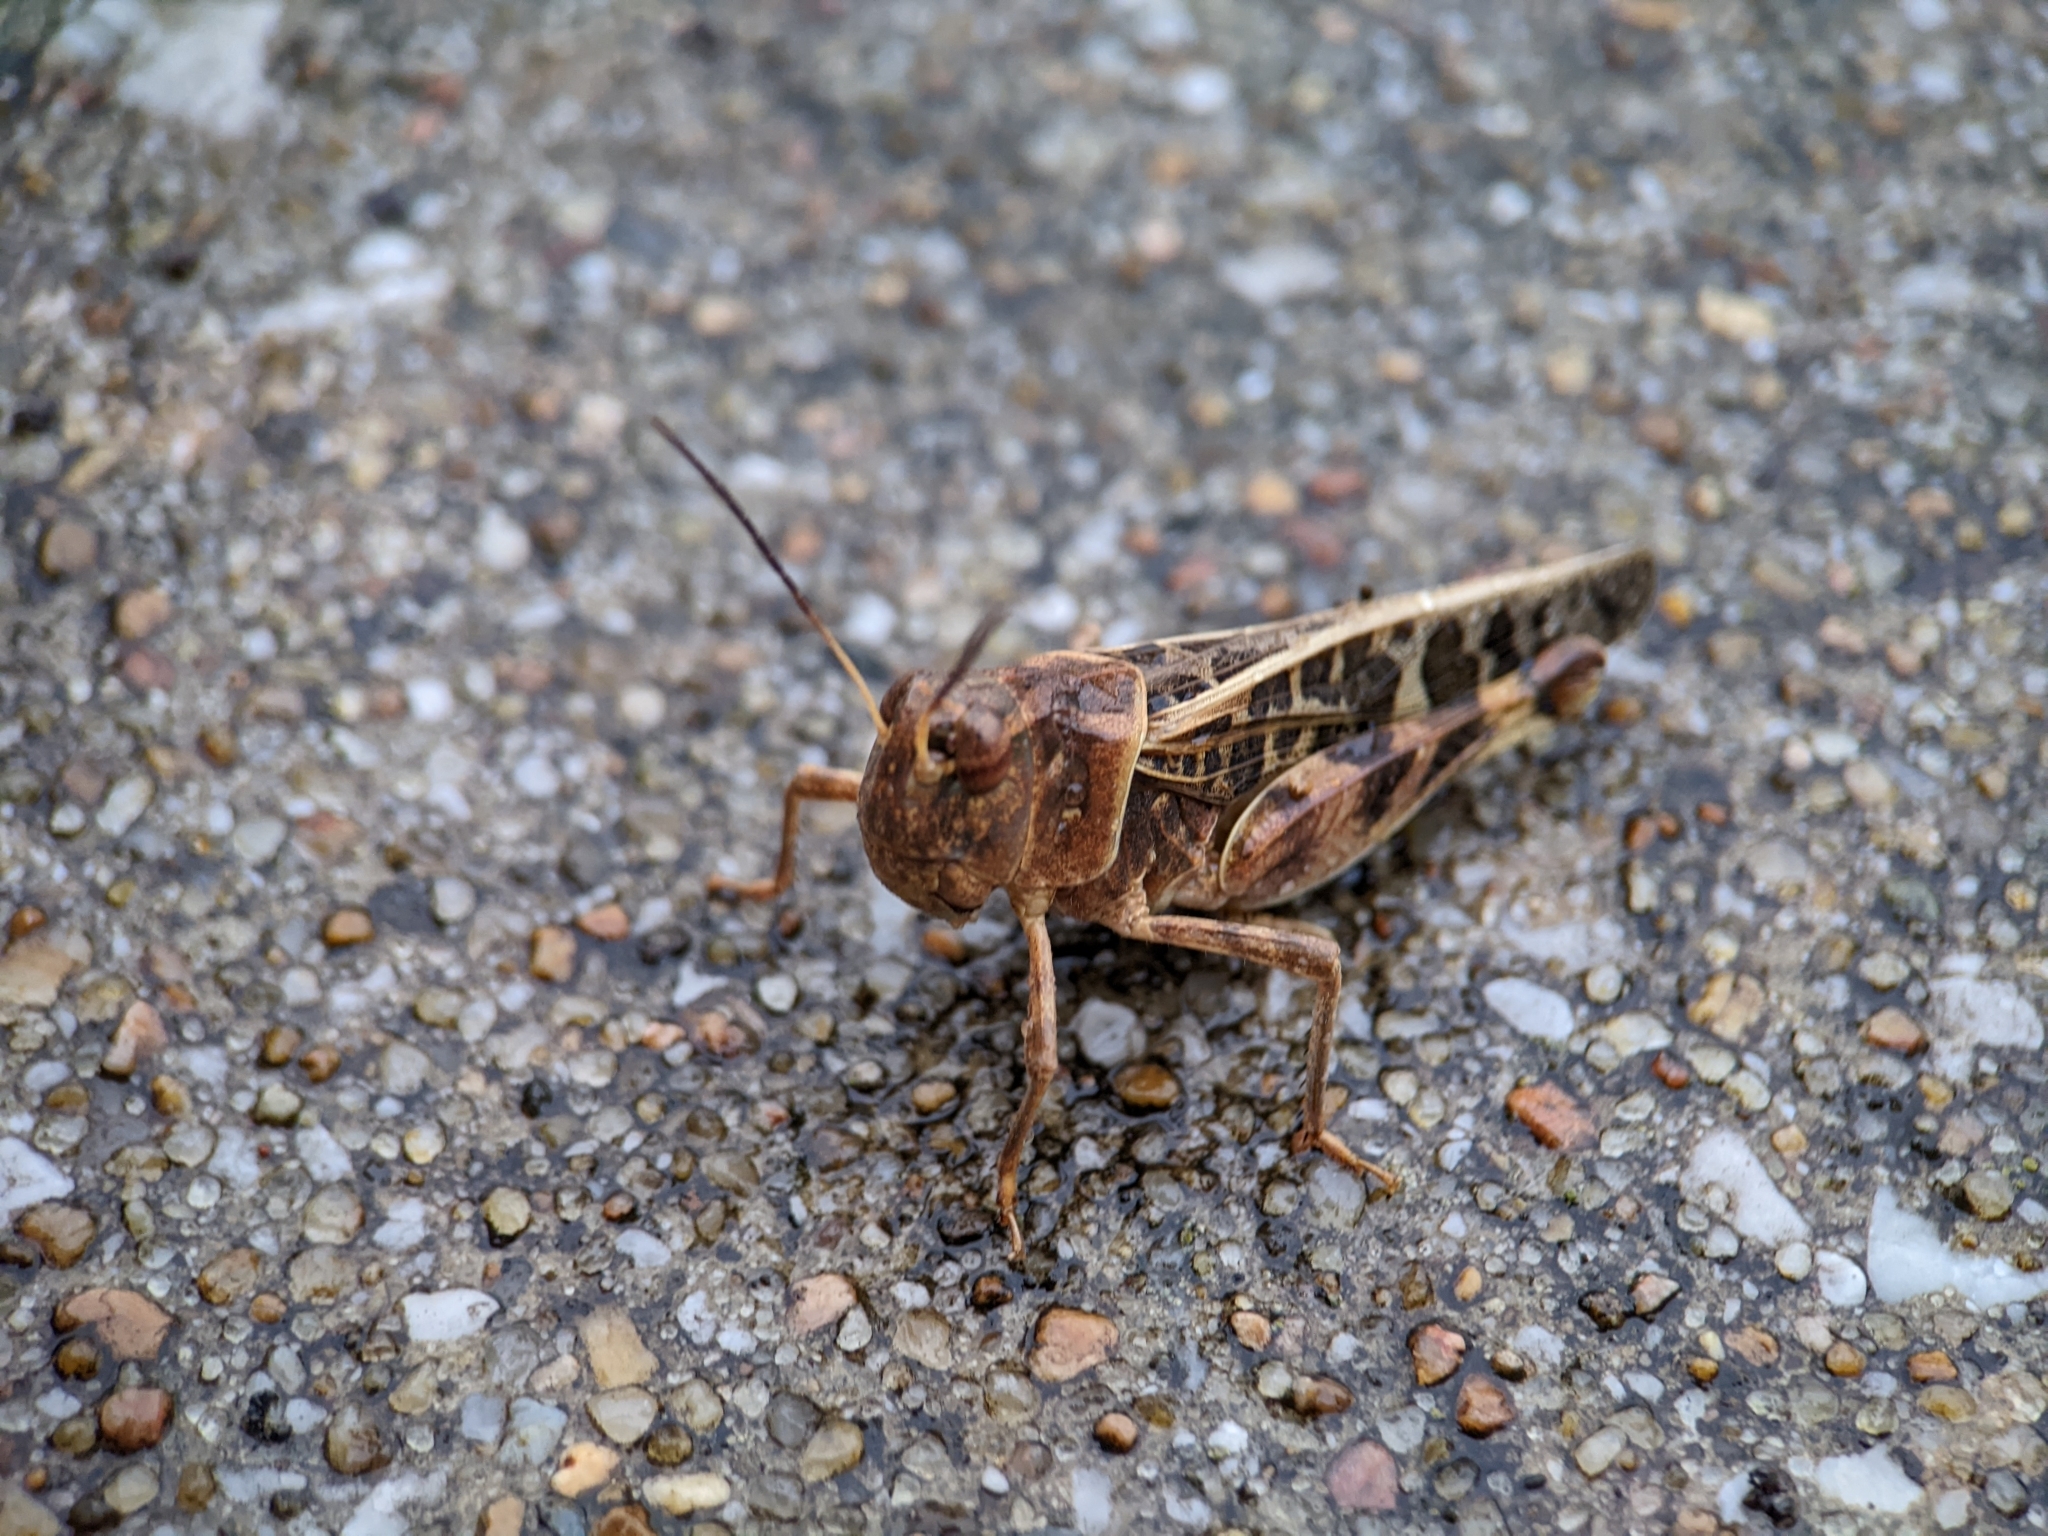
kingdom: Animalia
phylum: Arthropoda
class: Insecta
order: Orthoptera
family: Acrididae
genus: Hippiscus
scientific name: Hippiscus ocelote
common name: Wrinkled grasshopper
